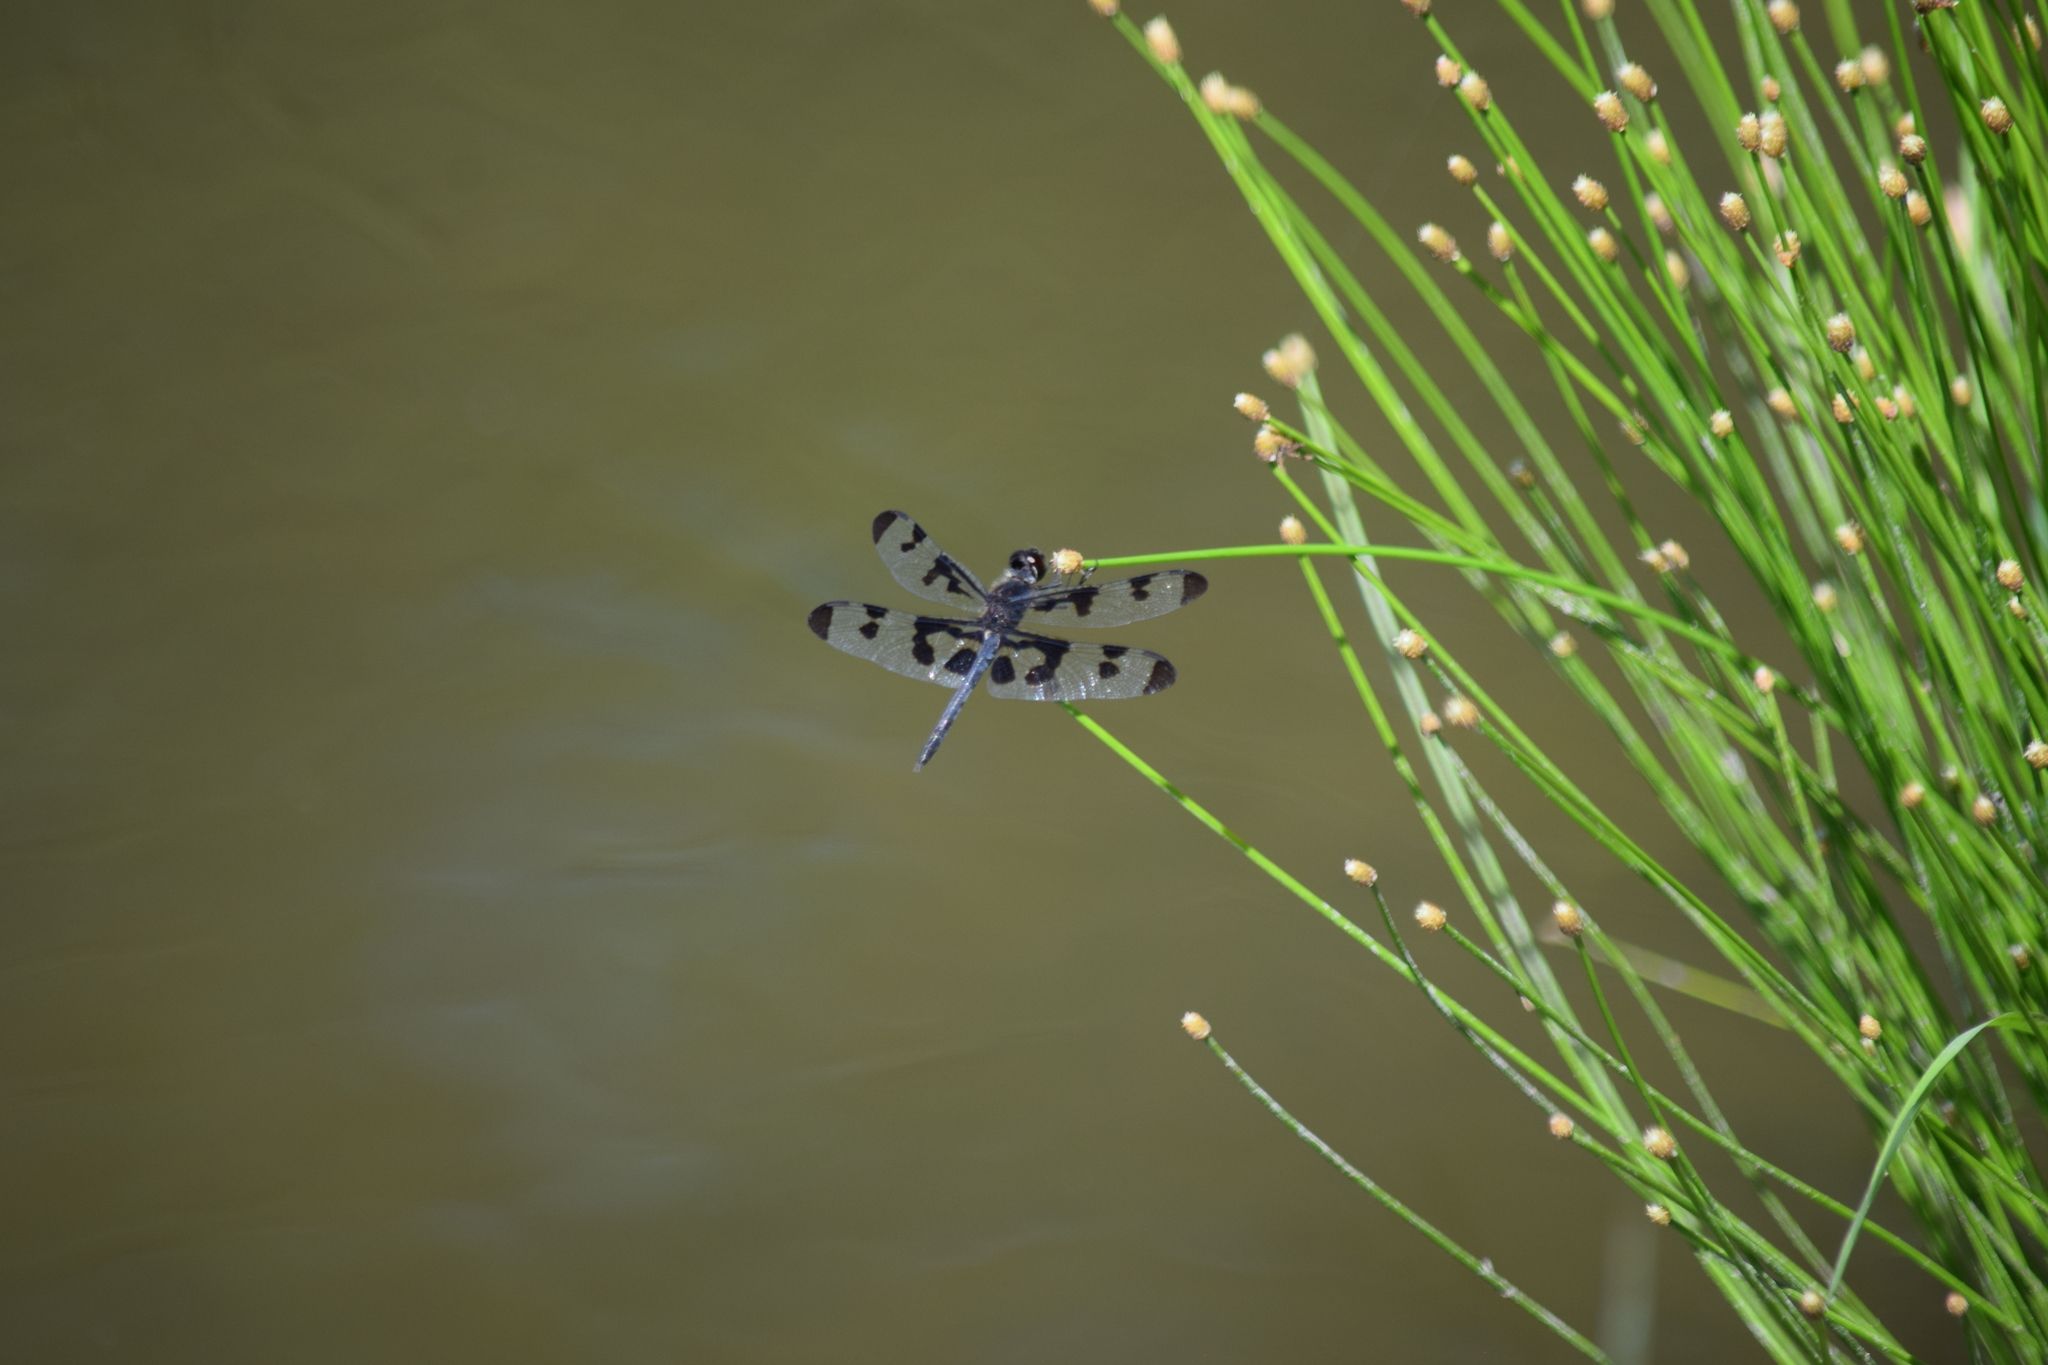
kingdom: Animalia
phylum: Arthropoda
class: Insecta
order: Odonata
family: Libellulidae
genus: Celithemis
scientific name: Celithemis fasciata
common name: Banded pennant
